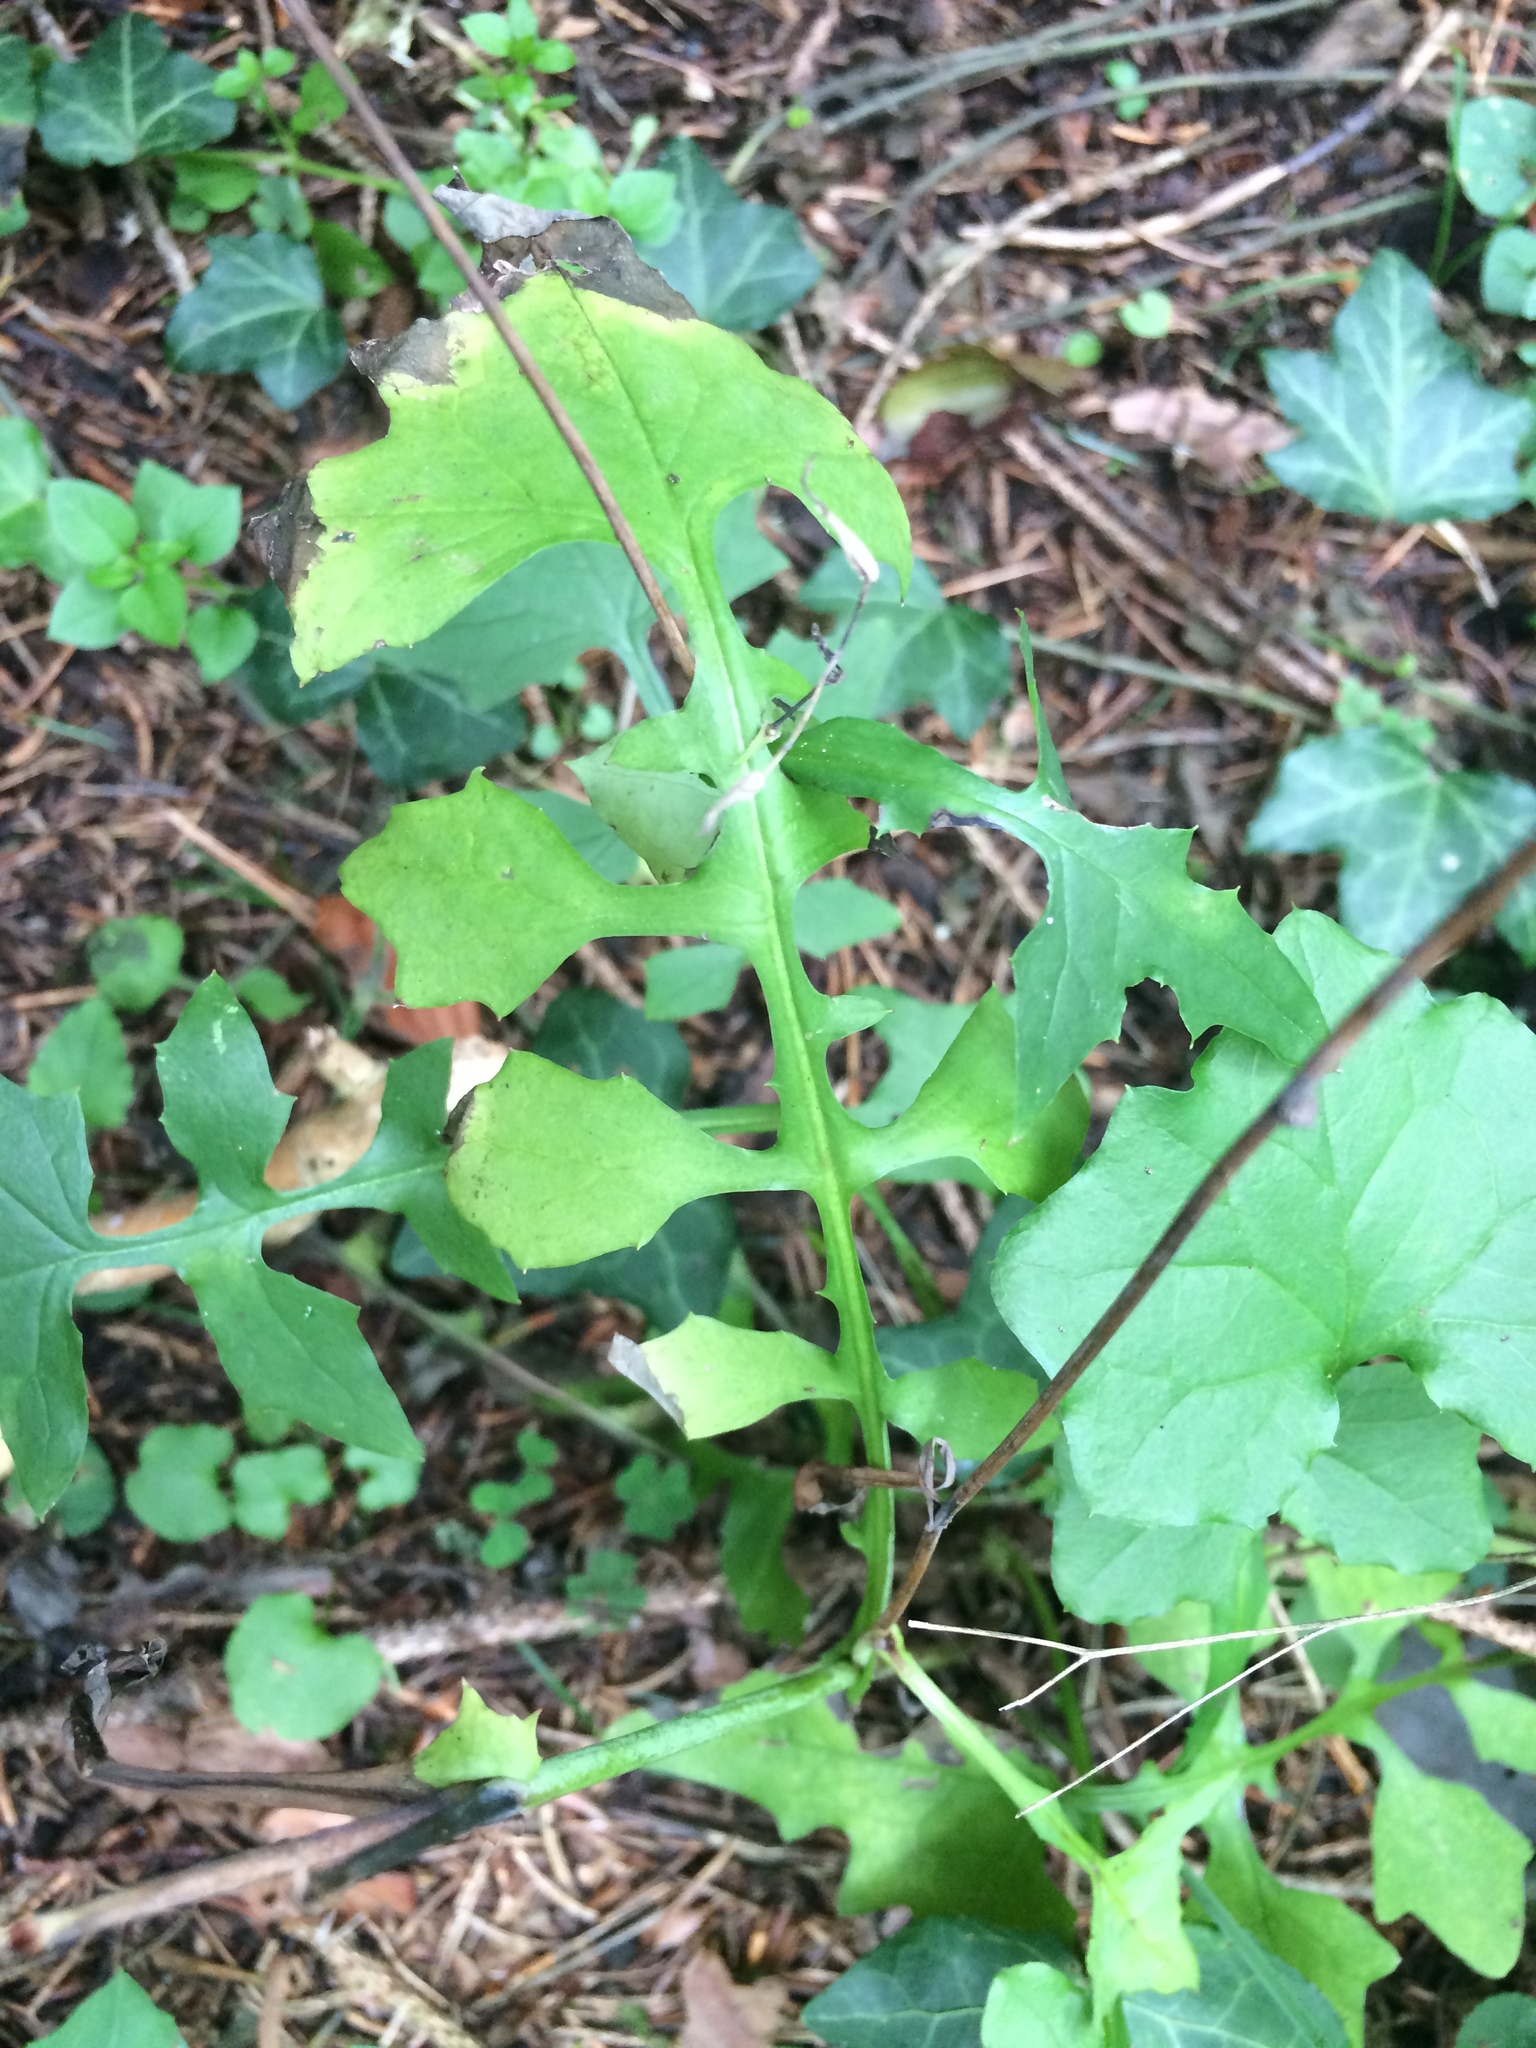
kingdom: Plantae
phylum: Tracheophyta
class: Magnoliopsida
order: Asterales
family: Asteraceae
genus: Mycelis
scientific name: Mycelis muralis
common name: Wall lettuce
